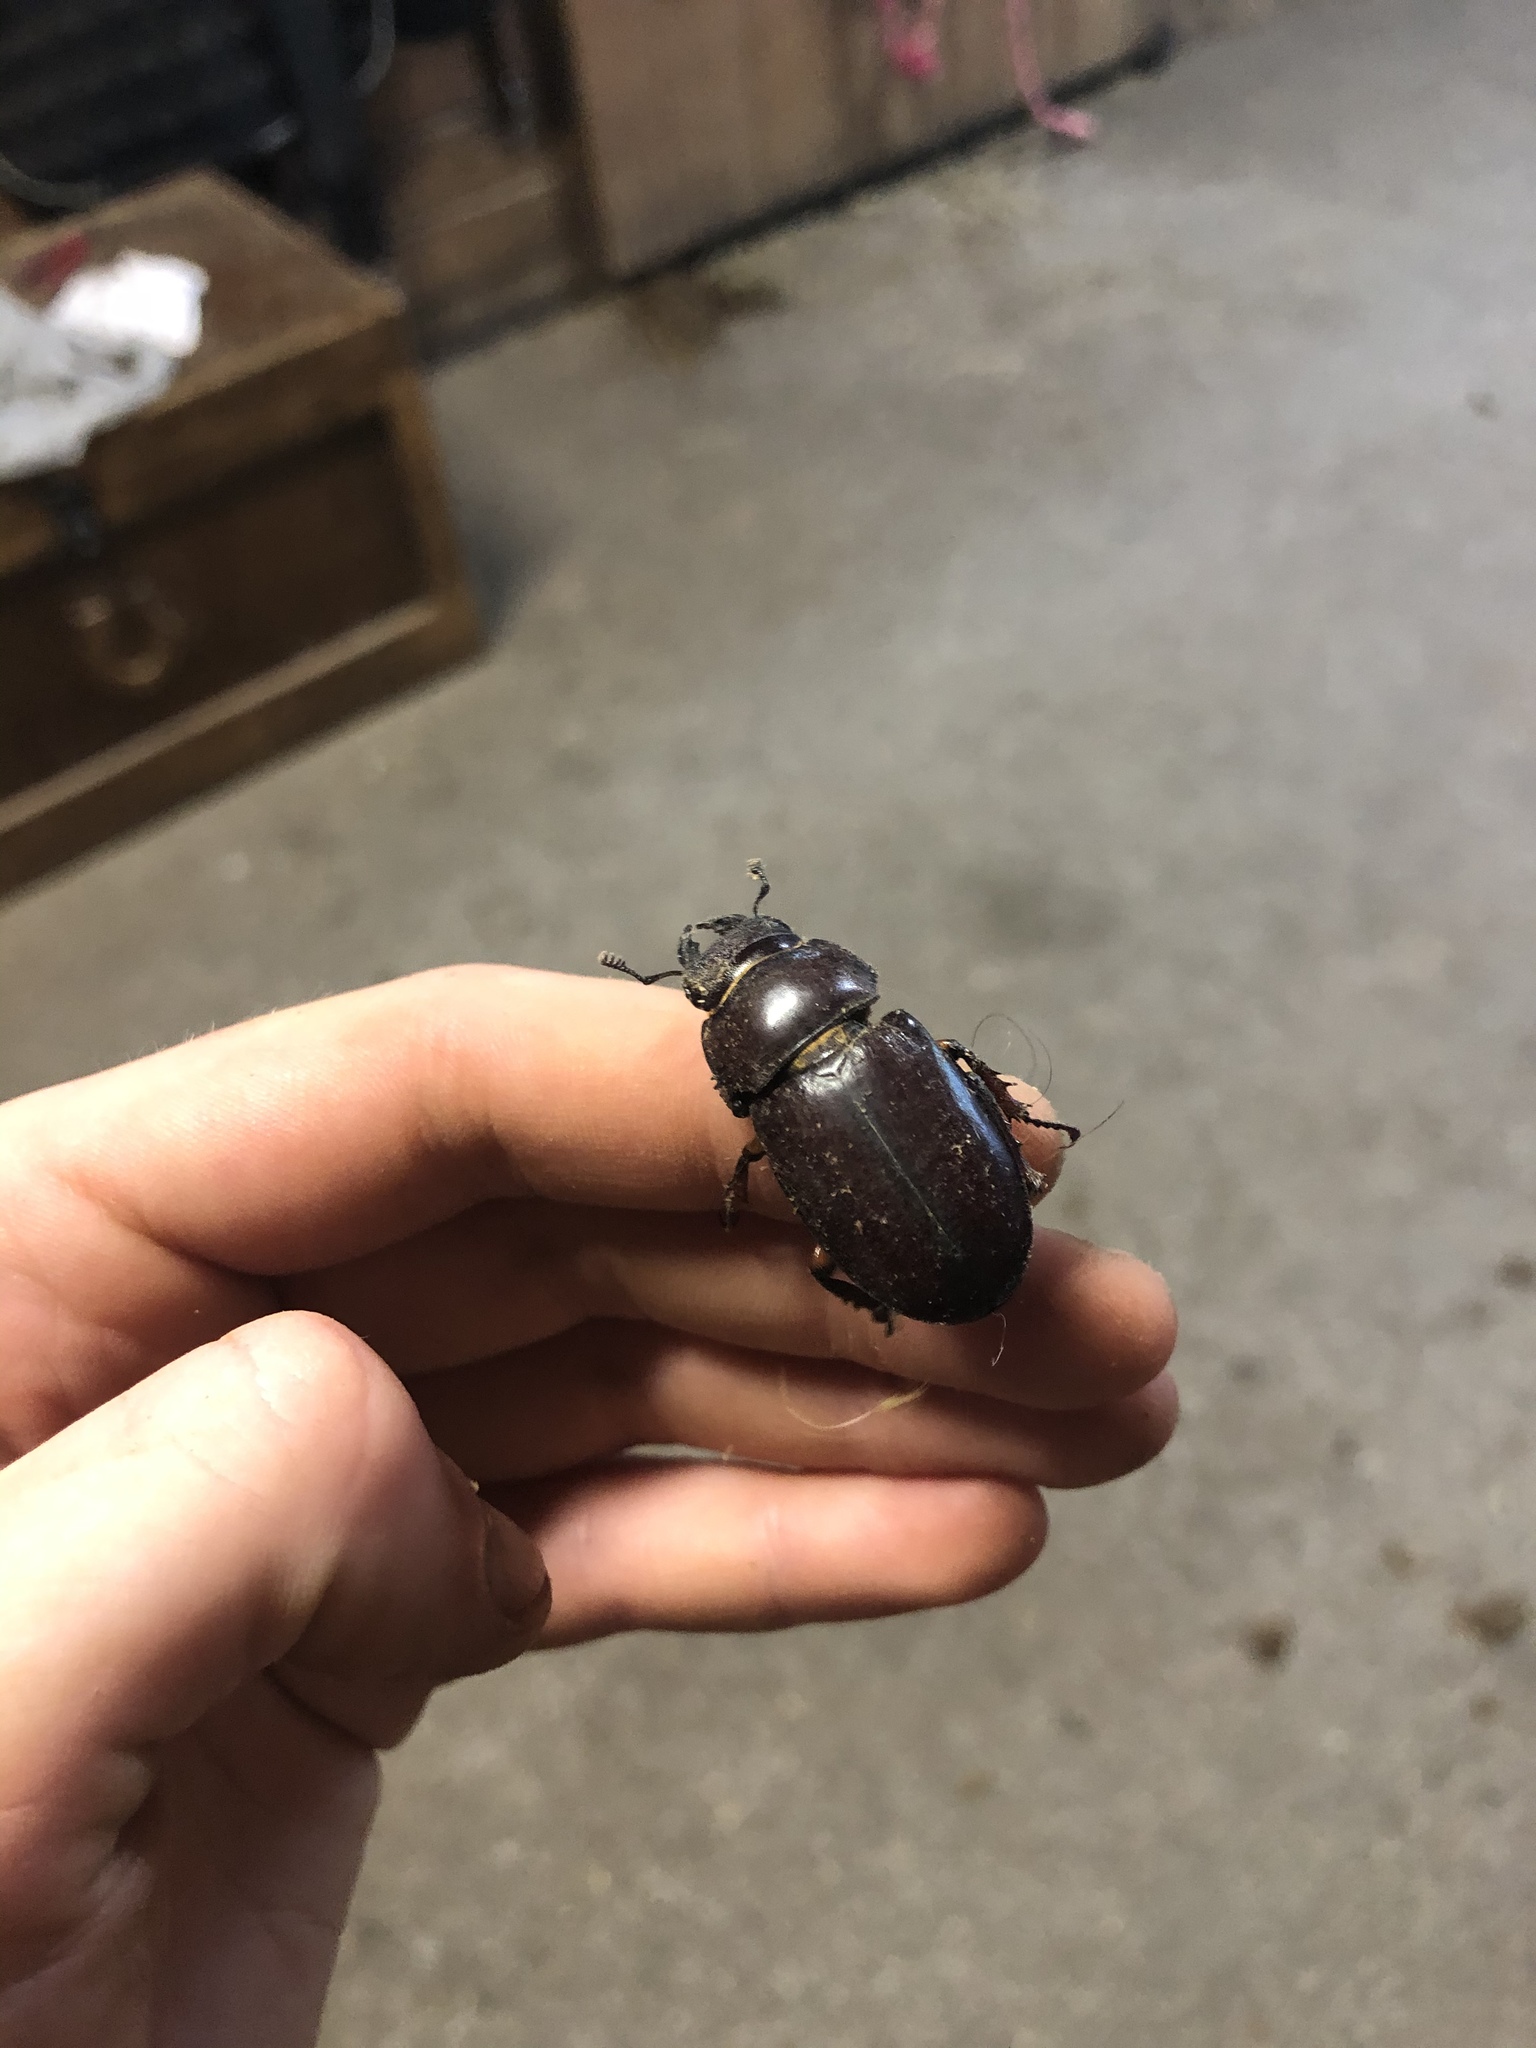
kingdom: Animalia
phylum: Arthropoda
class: Insecta
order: Coleoptera
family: Lucanidae
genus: Lucanus
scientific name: Lucanus capreolus
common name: Stag beetle
